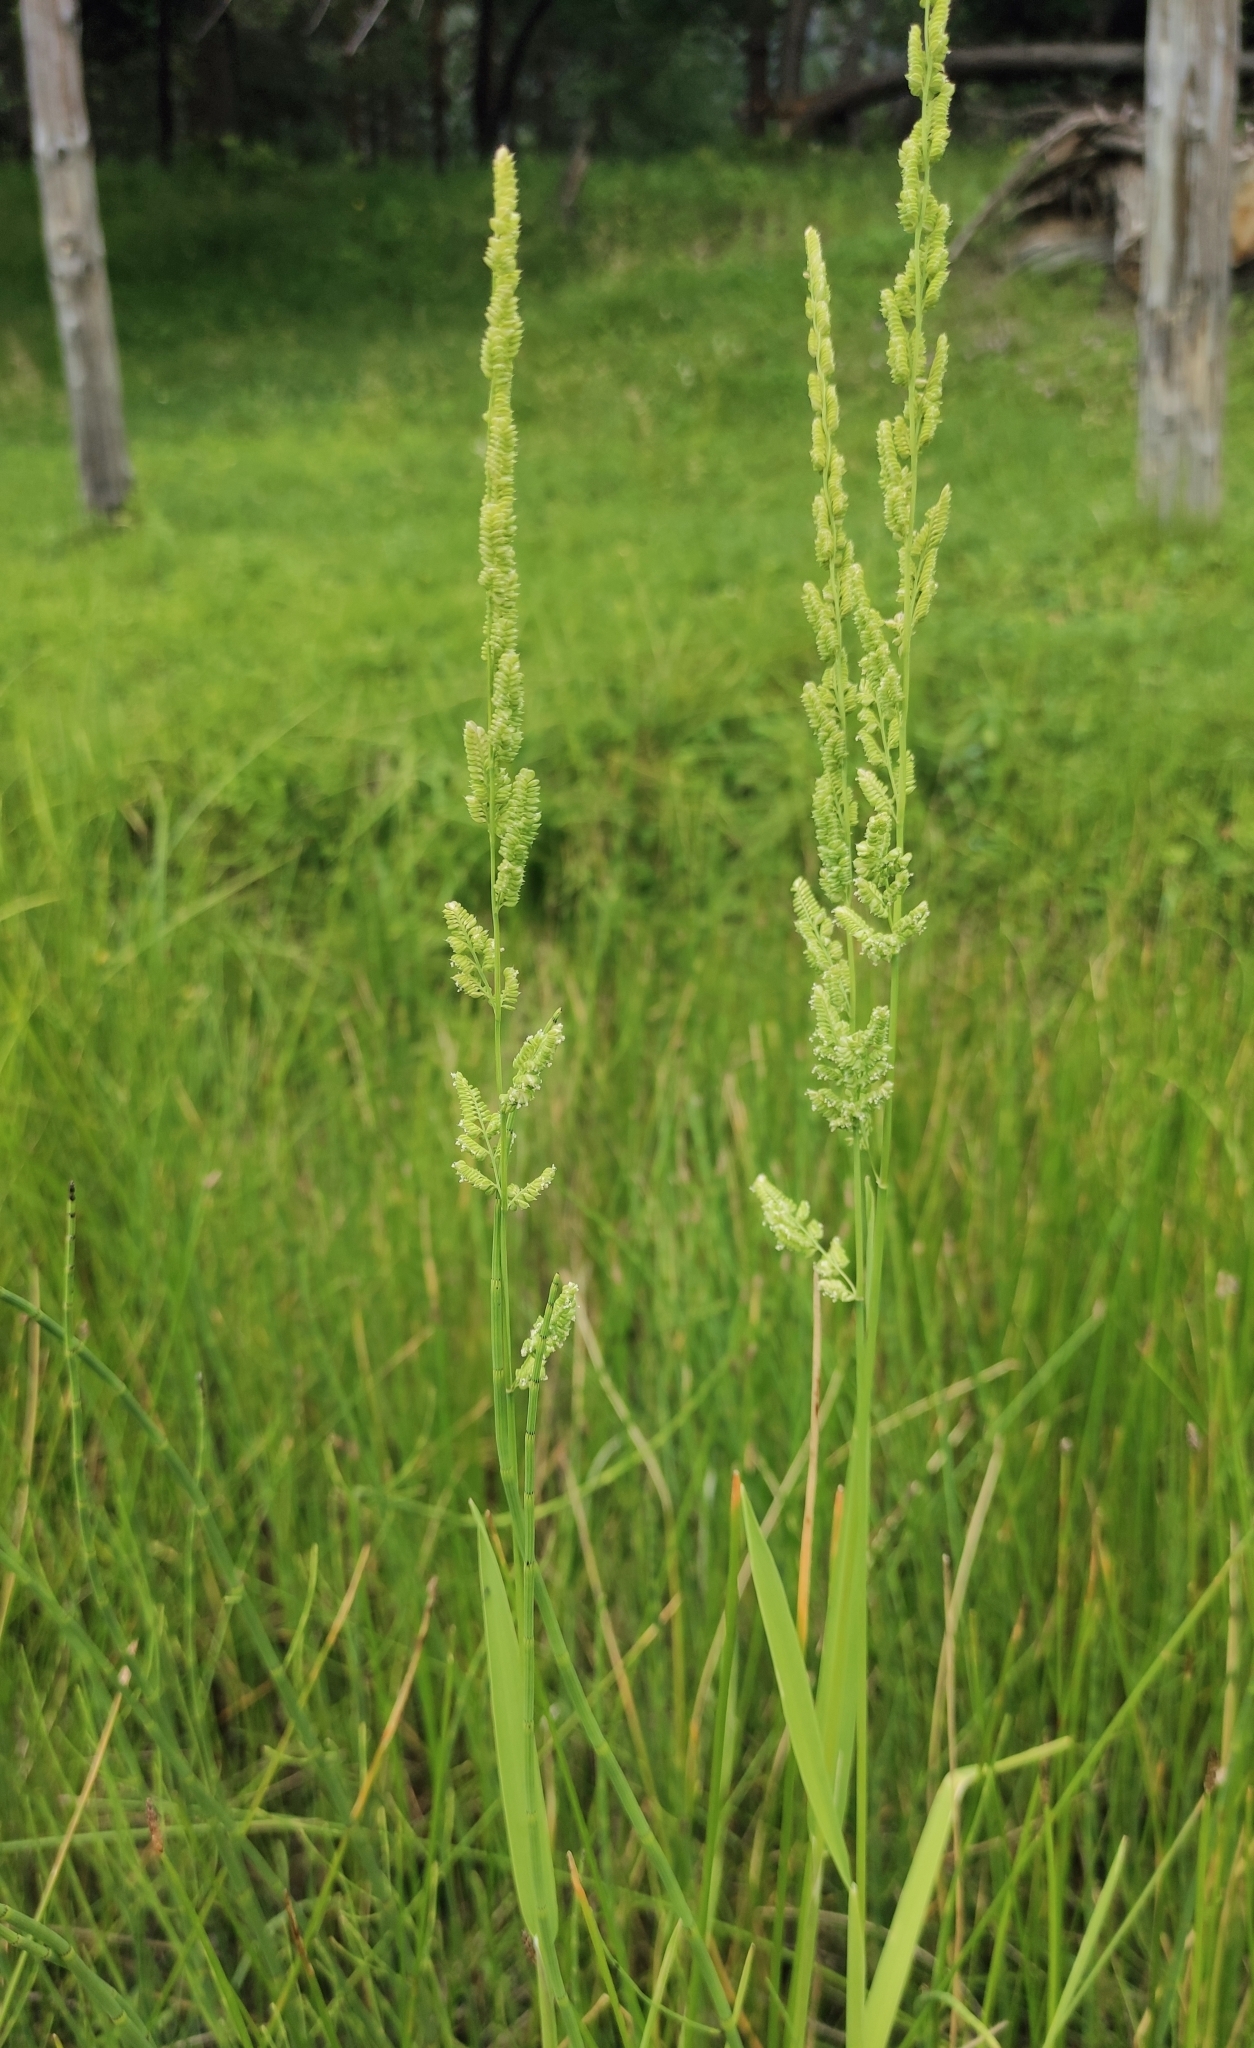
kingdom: Plantae
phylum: Tracheophyta
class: Liliopsida
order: Poales
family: Poaceae
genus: Beckmannia
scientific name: Beckmannia syzigachne
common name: American slough-grass
